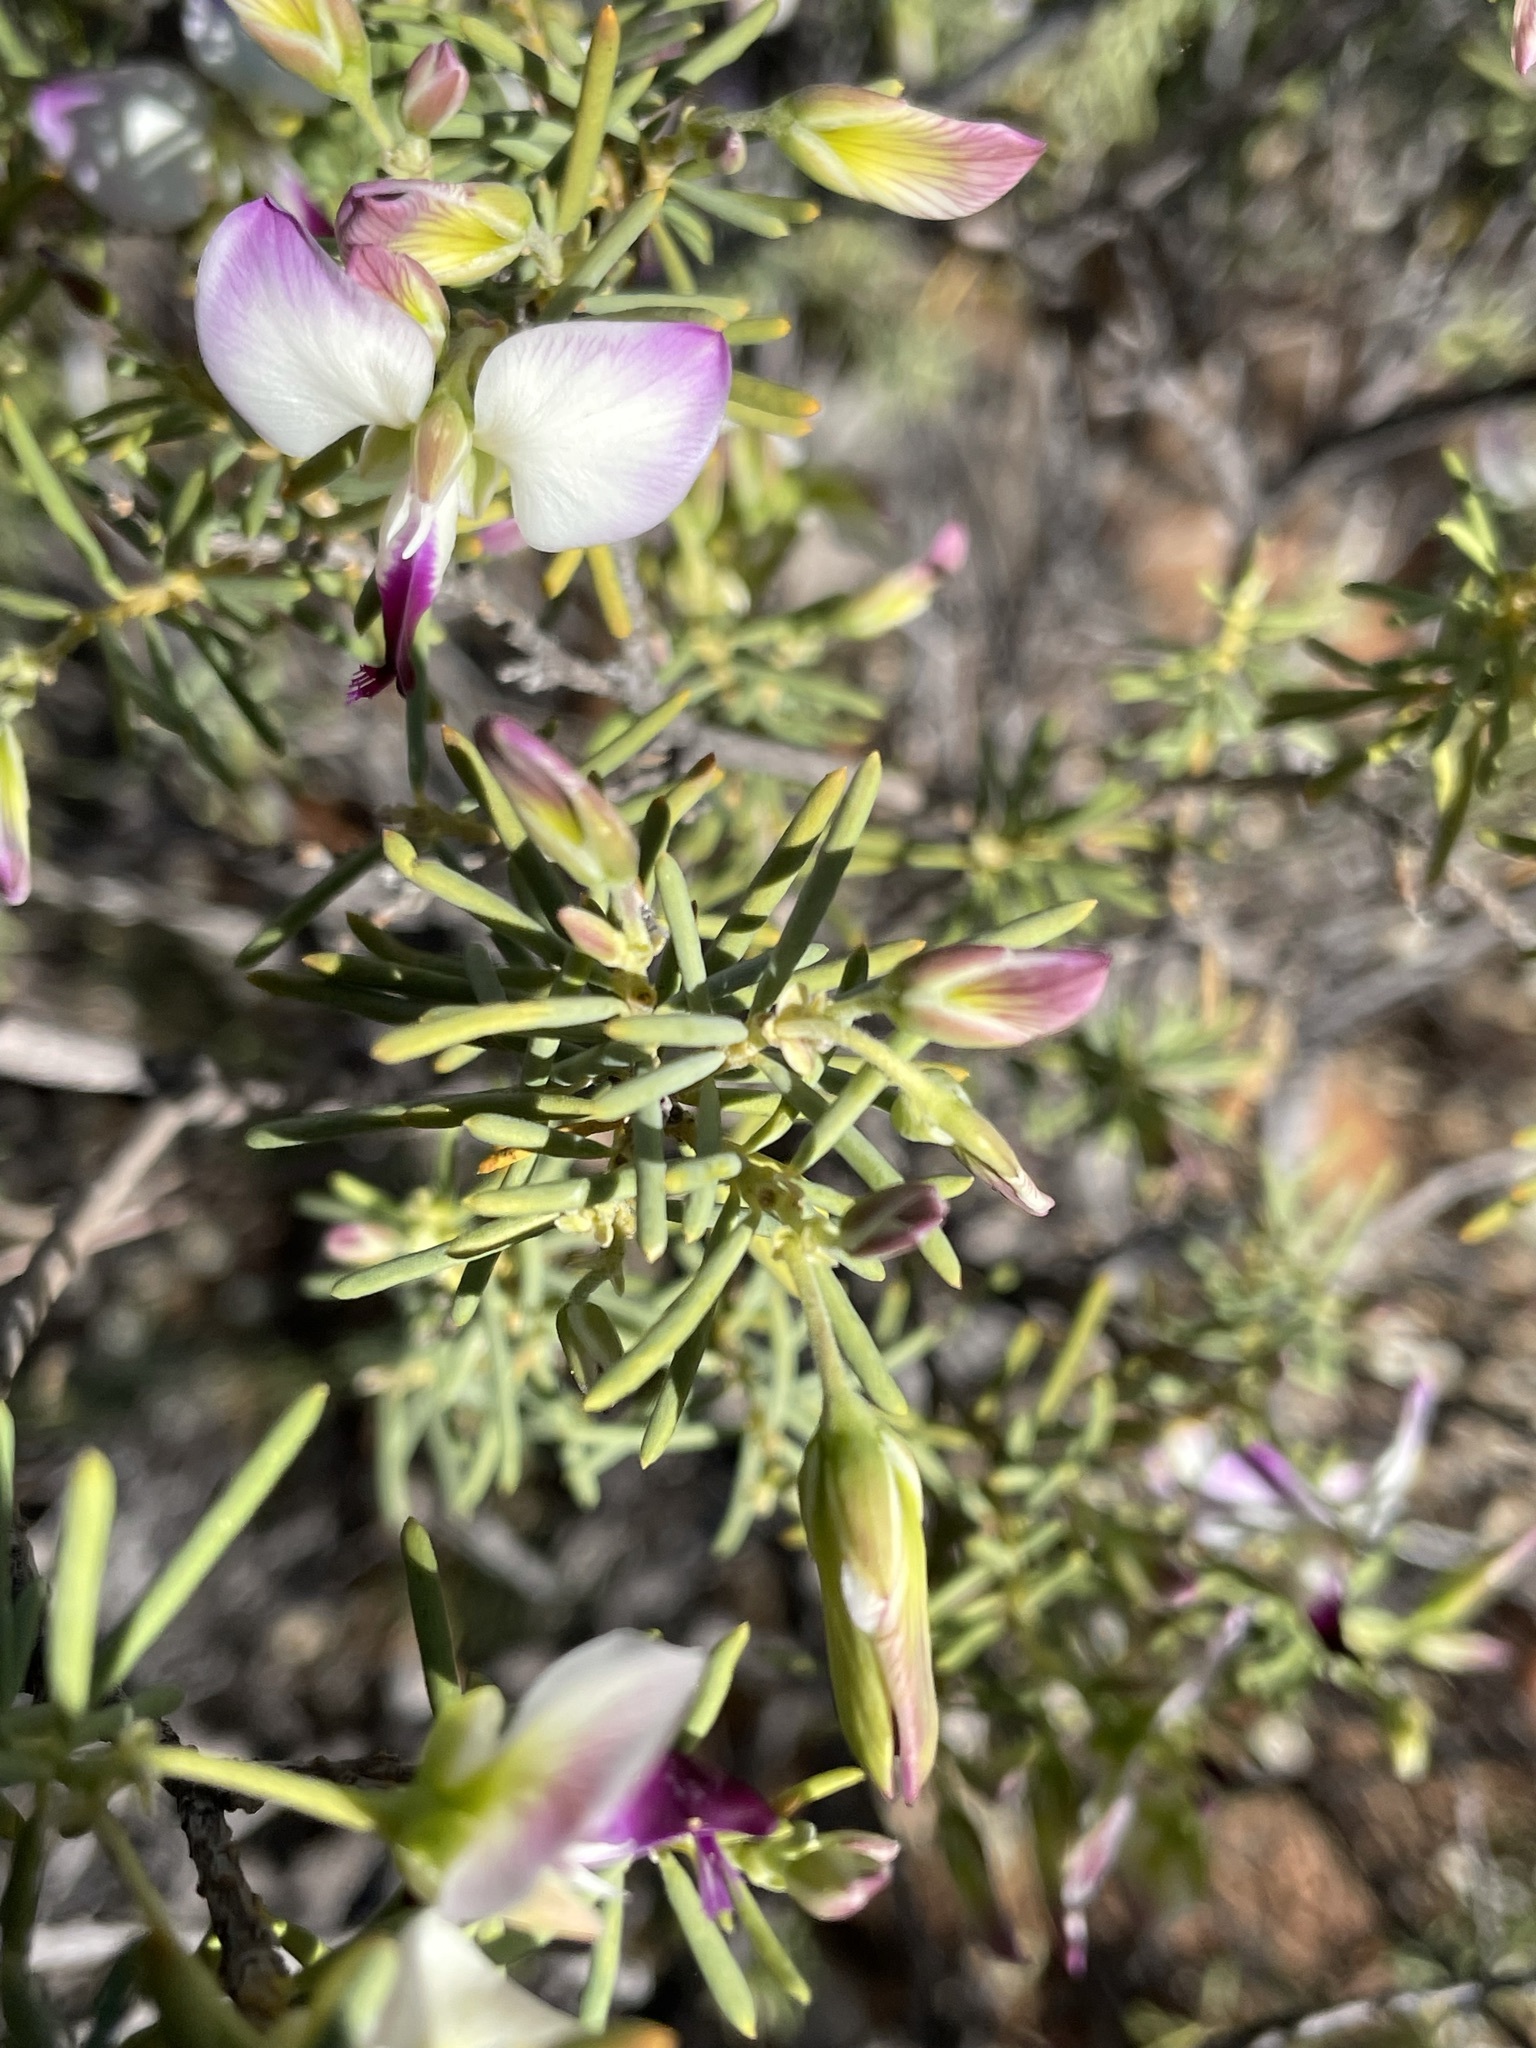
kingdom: Plantae
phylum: Tracheophyta
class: Magnoliopsida
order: Fabales
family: Polygalaceae
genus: Polygala
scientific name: Polygala myrtifolia
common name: Myrtle-leaf milkwort
